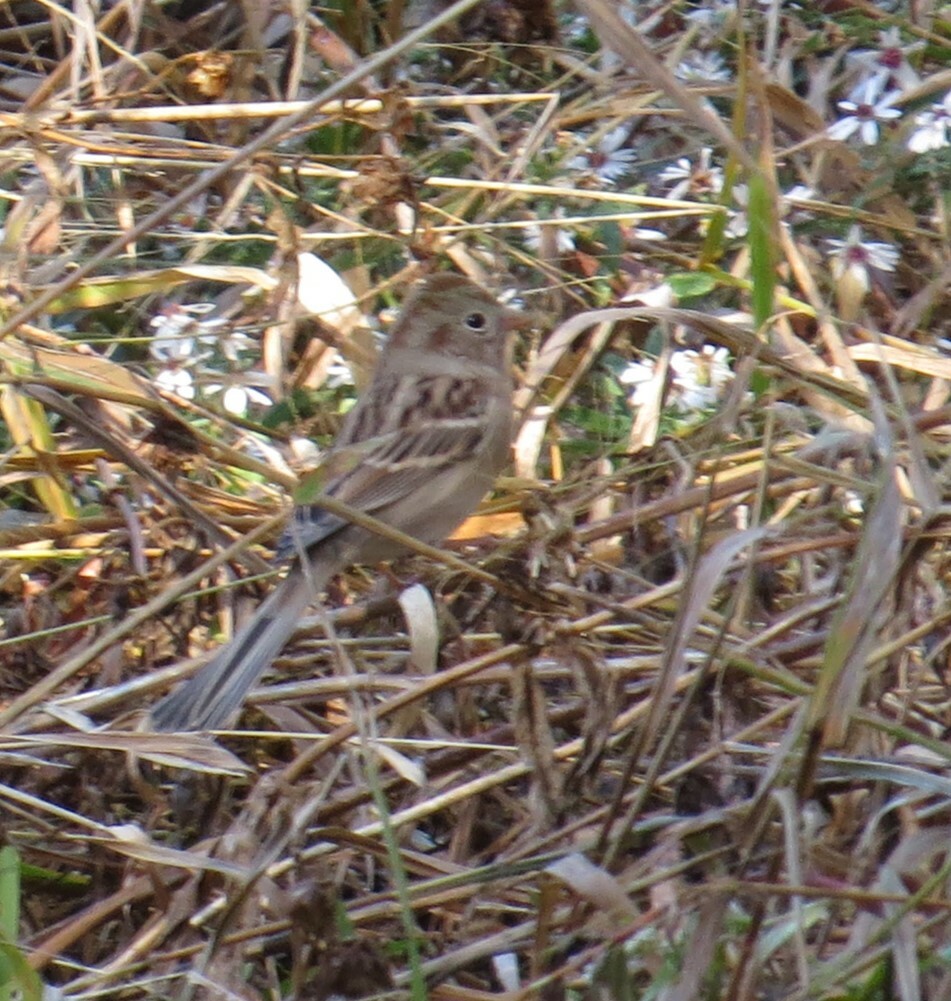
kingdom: Animalia
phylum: Chordata
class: Aves
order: Passeriformes
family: Passerellidae
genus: Spizella
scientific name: Spizella pusilla
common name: Field sparrow
